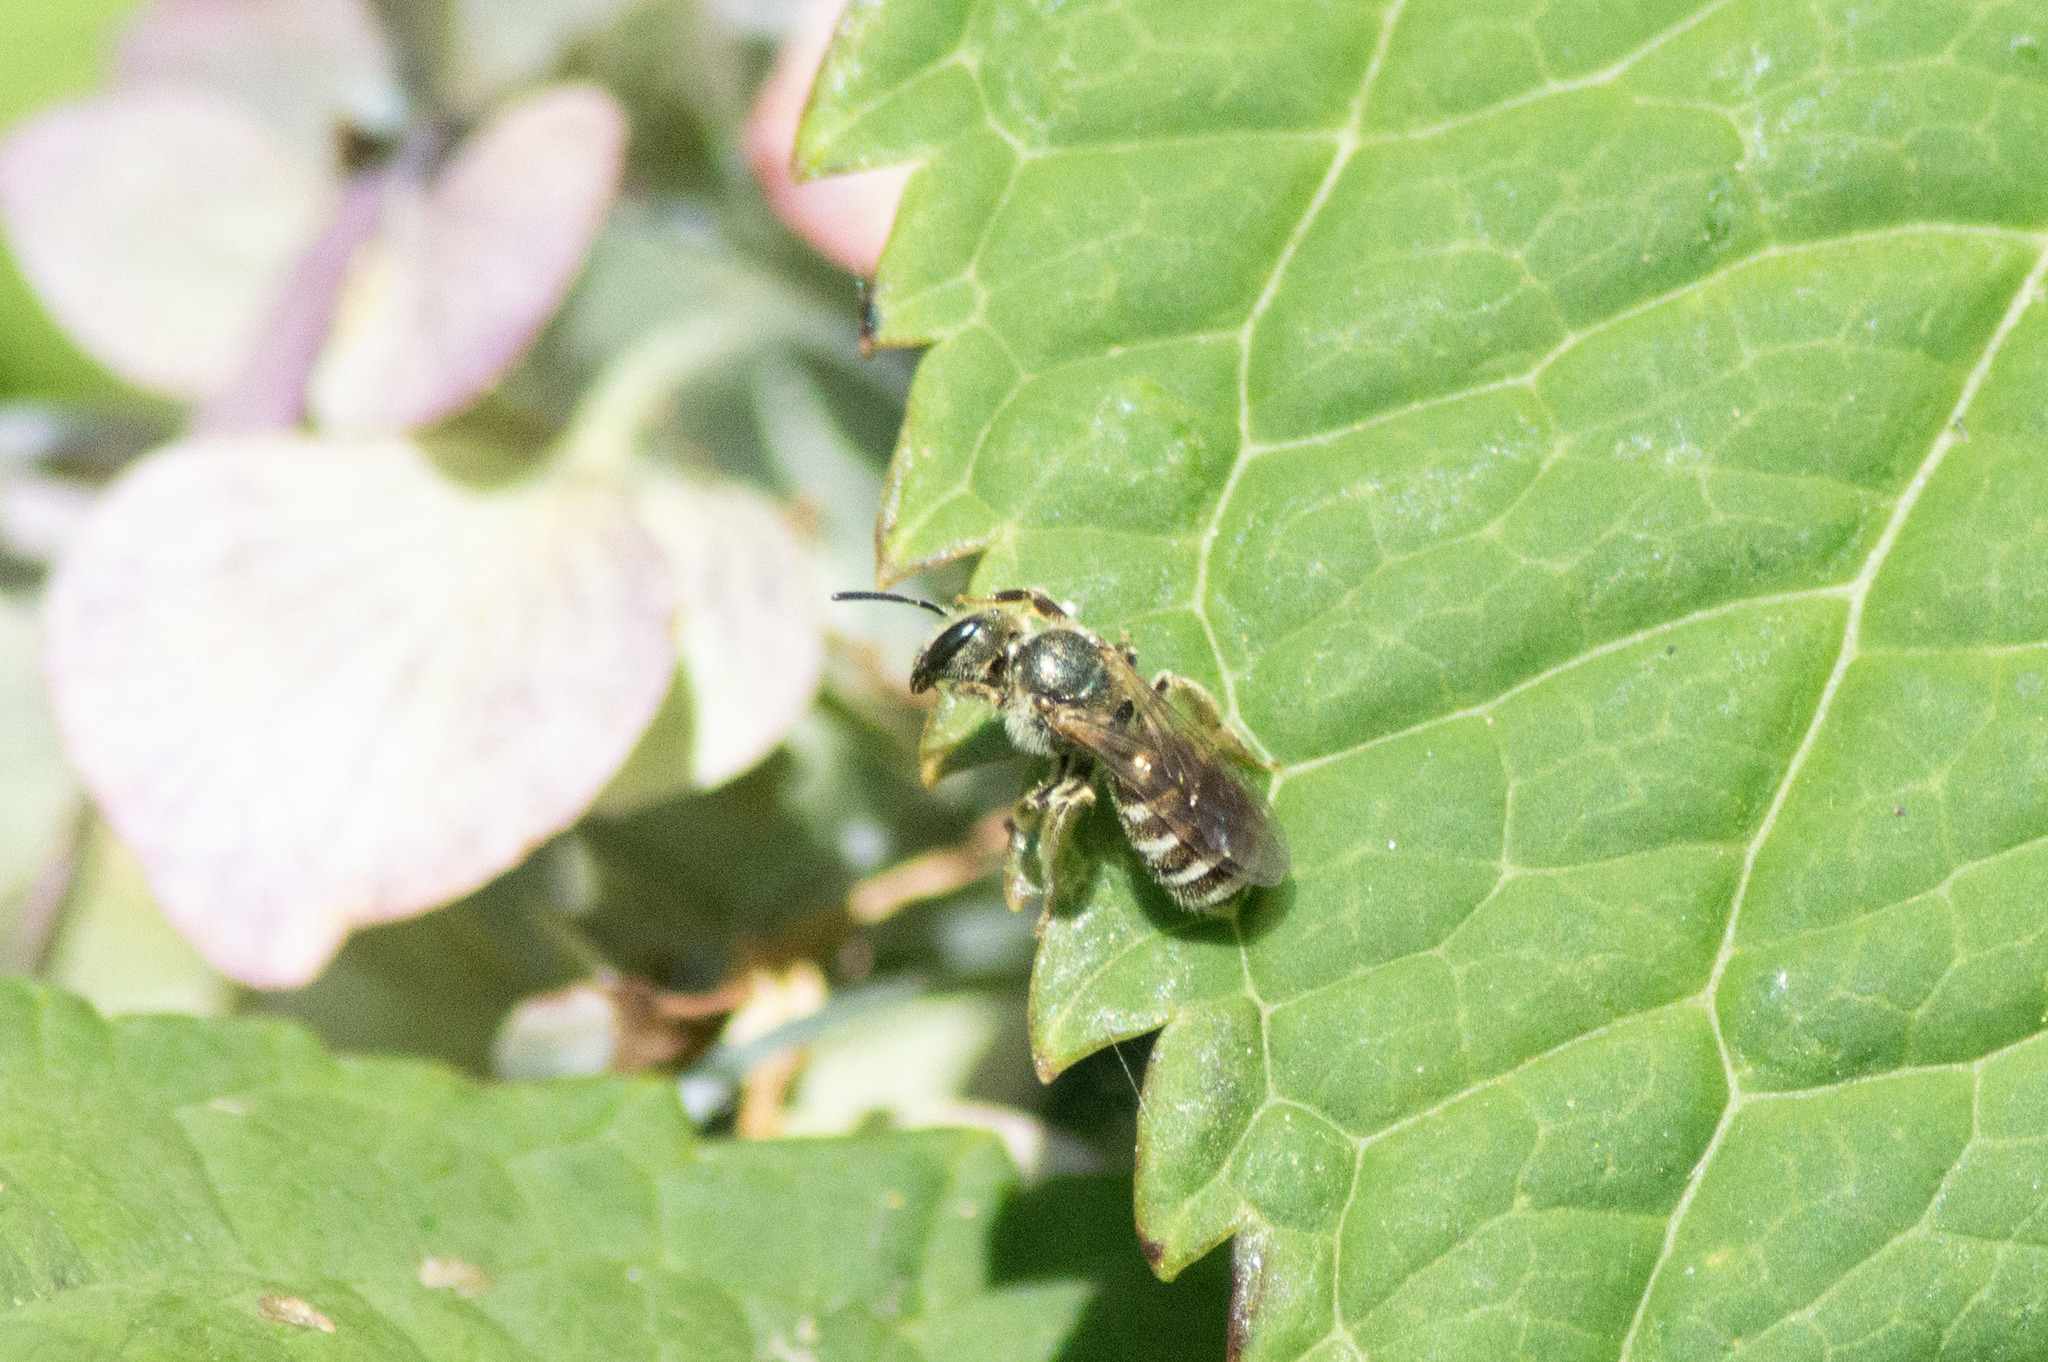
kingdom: Animalia
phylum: Arthropoda
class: Insecta
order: Hymenoptera
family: Halictidae
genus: Halictus
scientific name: Halictus confusus
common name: Southern bronze furrow bee
